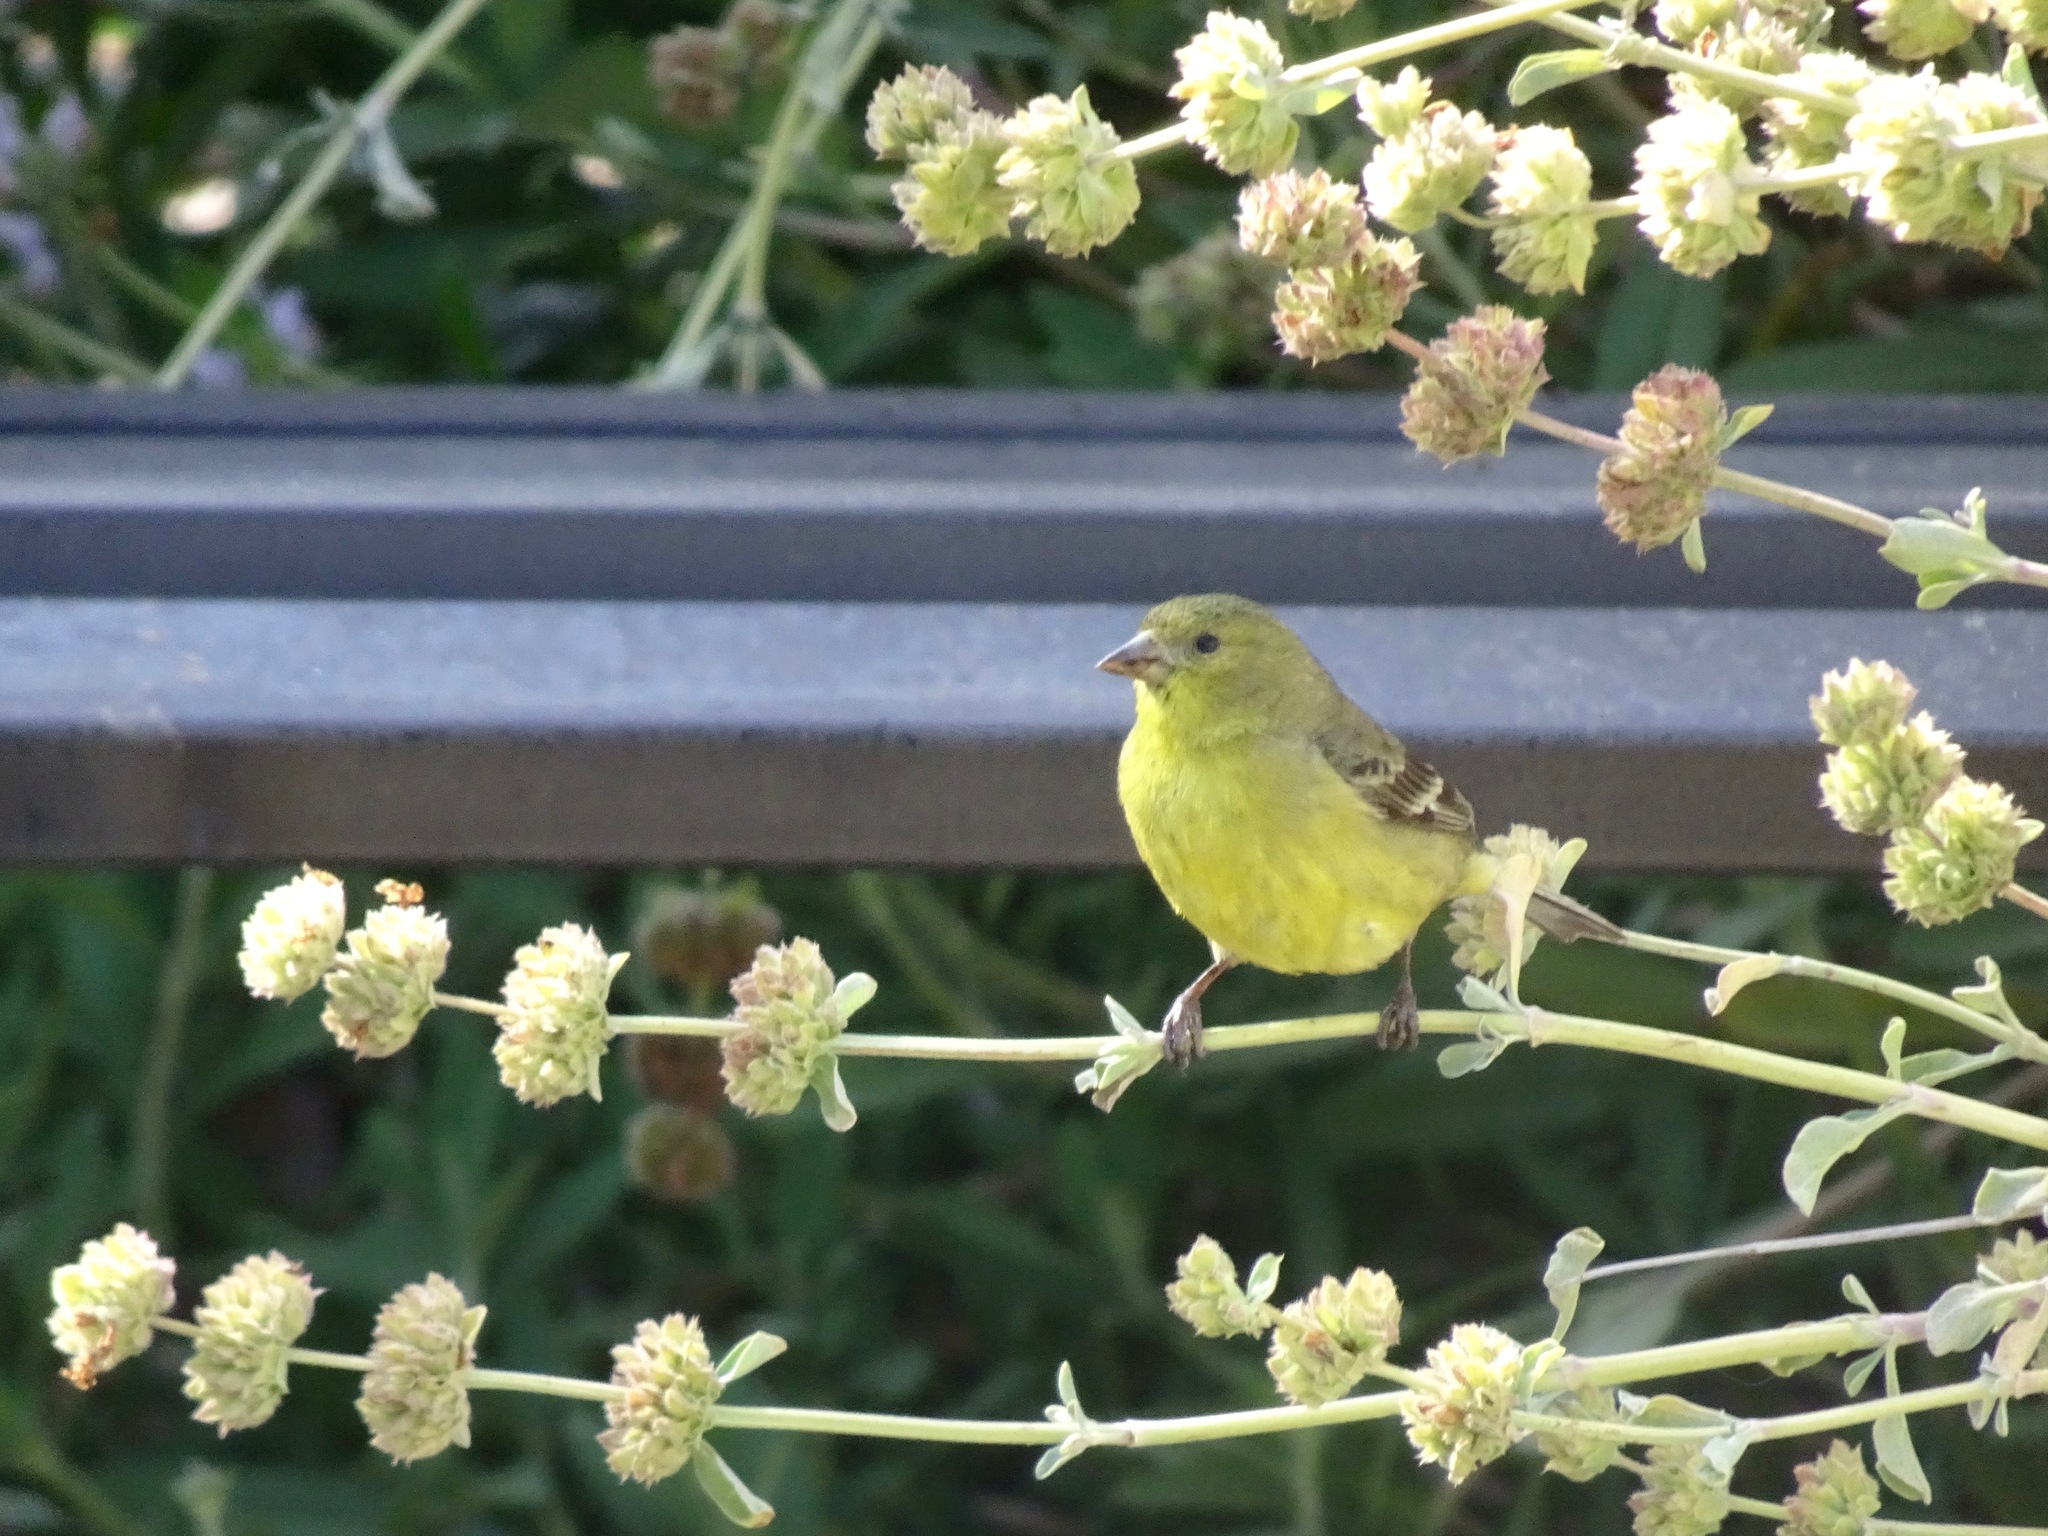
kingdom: Animalia
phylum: Chordata
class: Aves
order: Passeriformes
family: Fringillidae
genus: Spinus
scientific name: Spinus psaltria
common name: Lesser goldfinch
